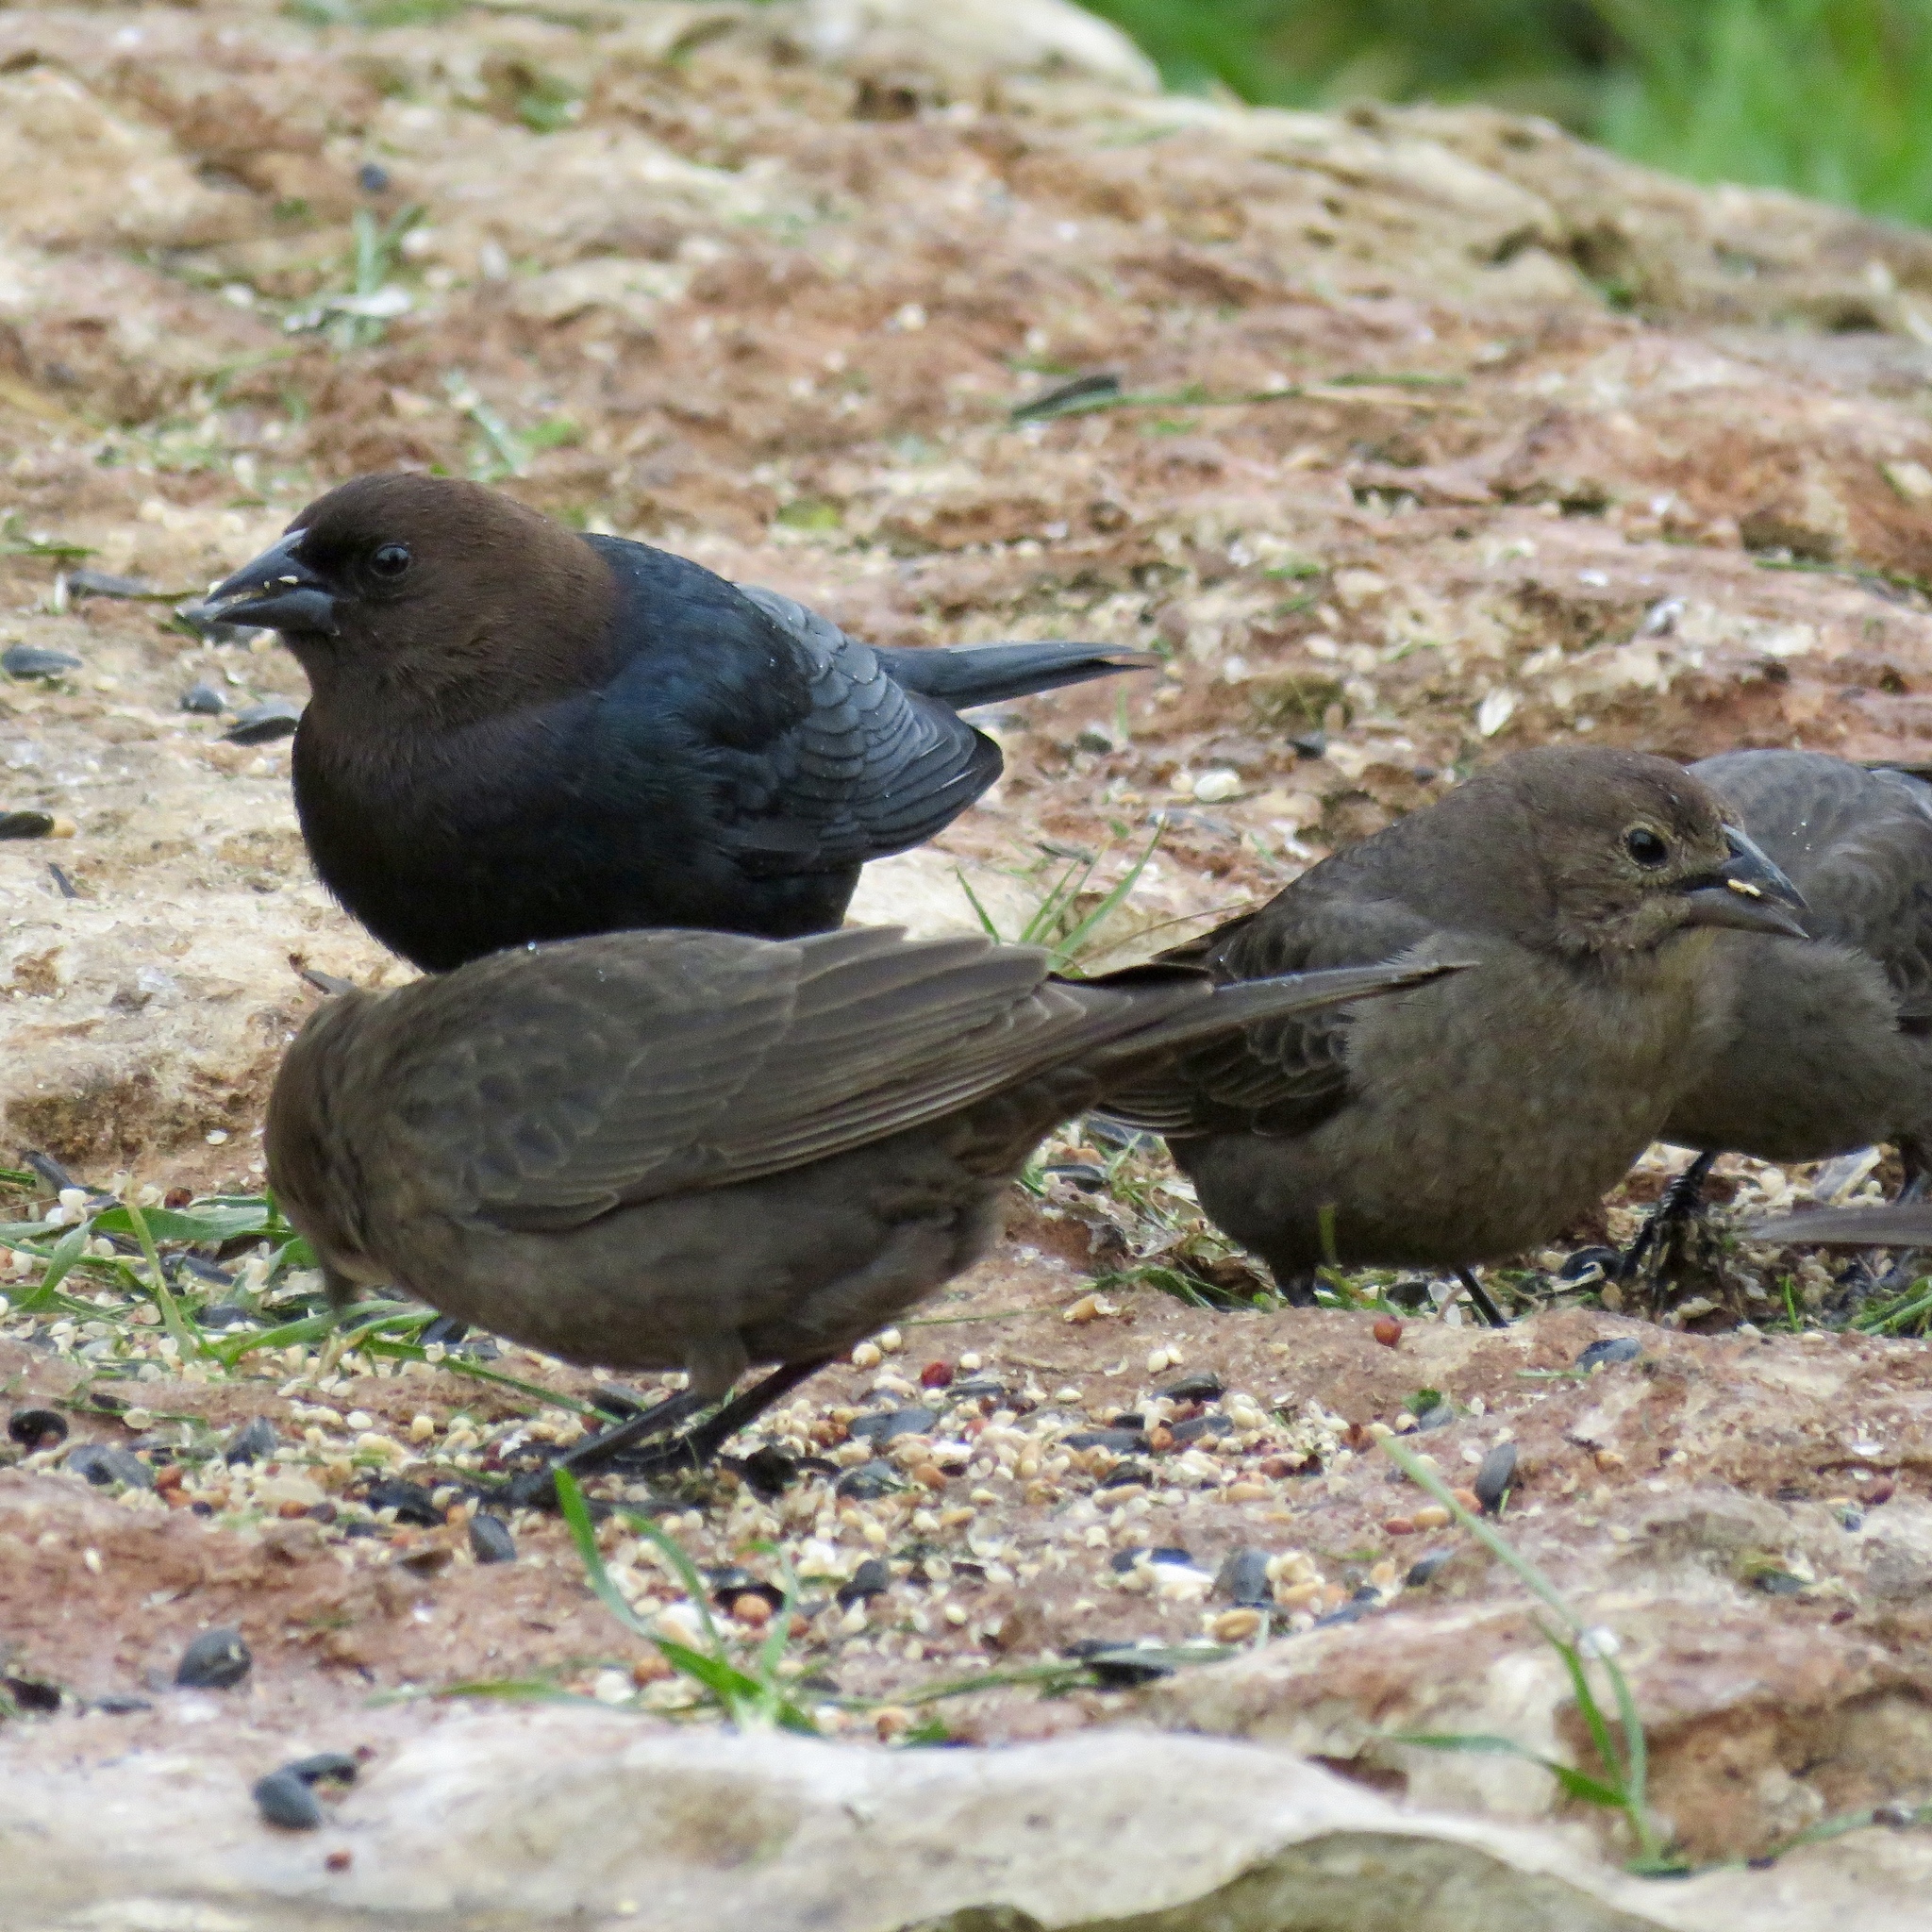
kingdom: Animalia
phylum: Chordata
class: Aves
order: Passeriformes
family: Icteridae
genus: Molothrus
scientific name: Molothrus ater
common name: Brown-headed cowbird
